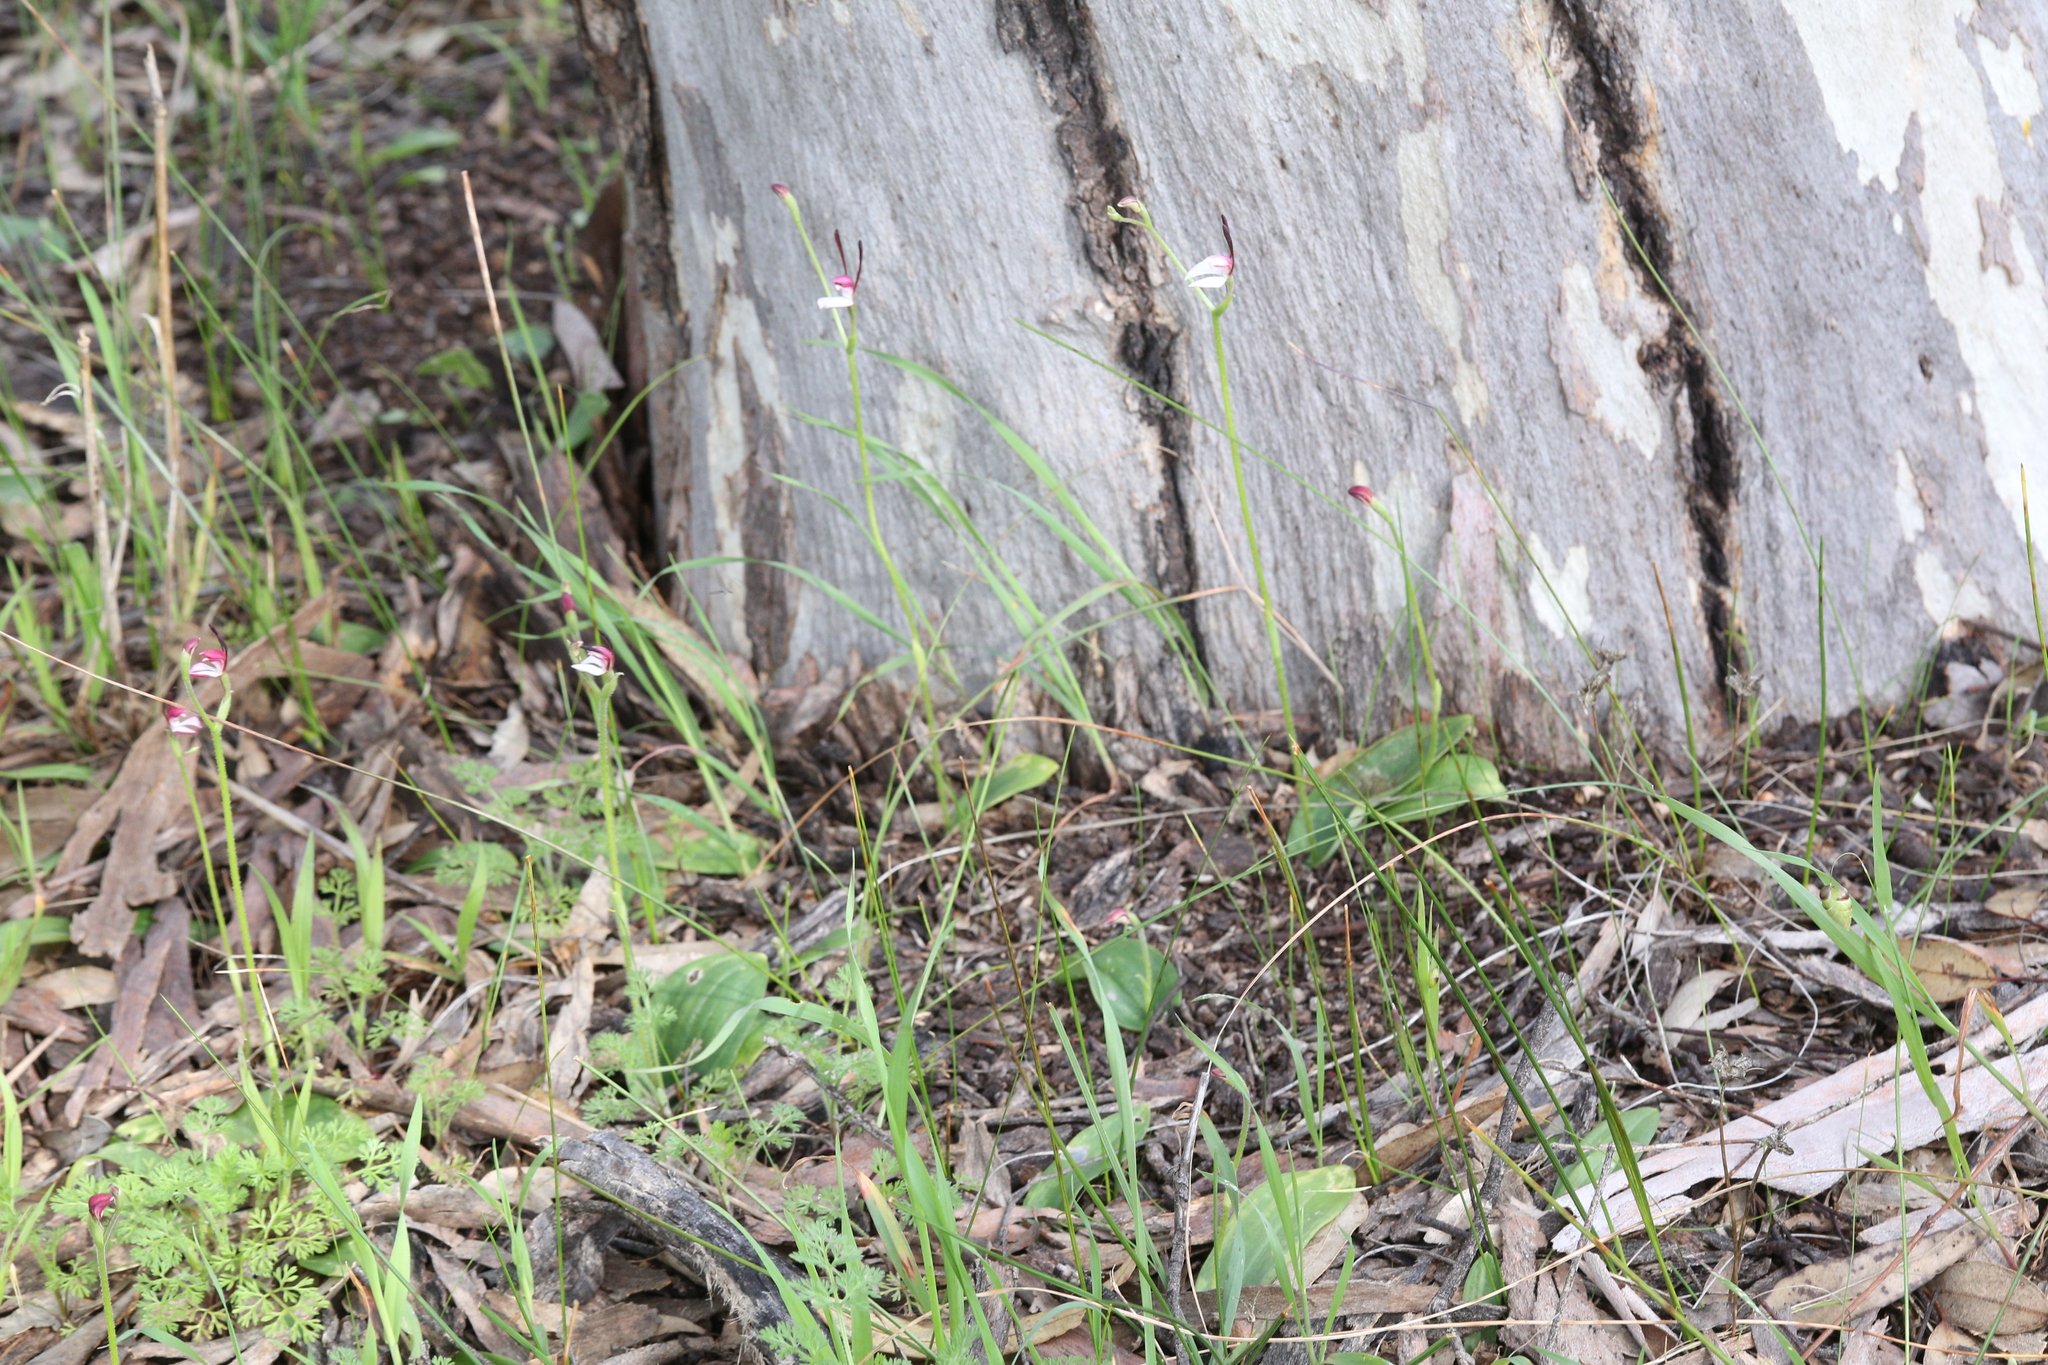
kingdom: Plantae
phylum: Tracheophyta
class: Liliopsida
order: Asparagales
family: Orchidaceae
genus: Leptoceras
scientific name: Leptoceras menziesii
